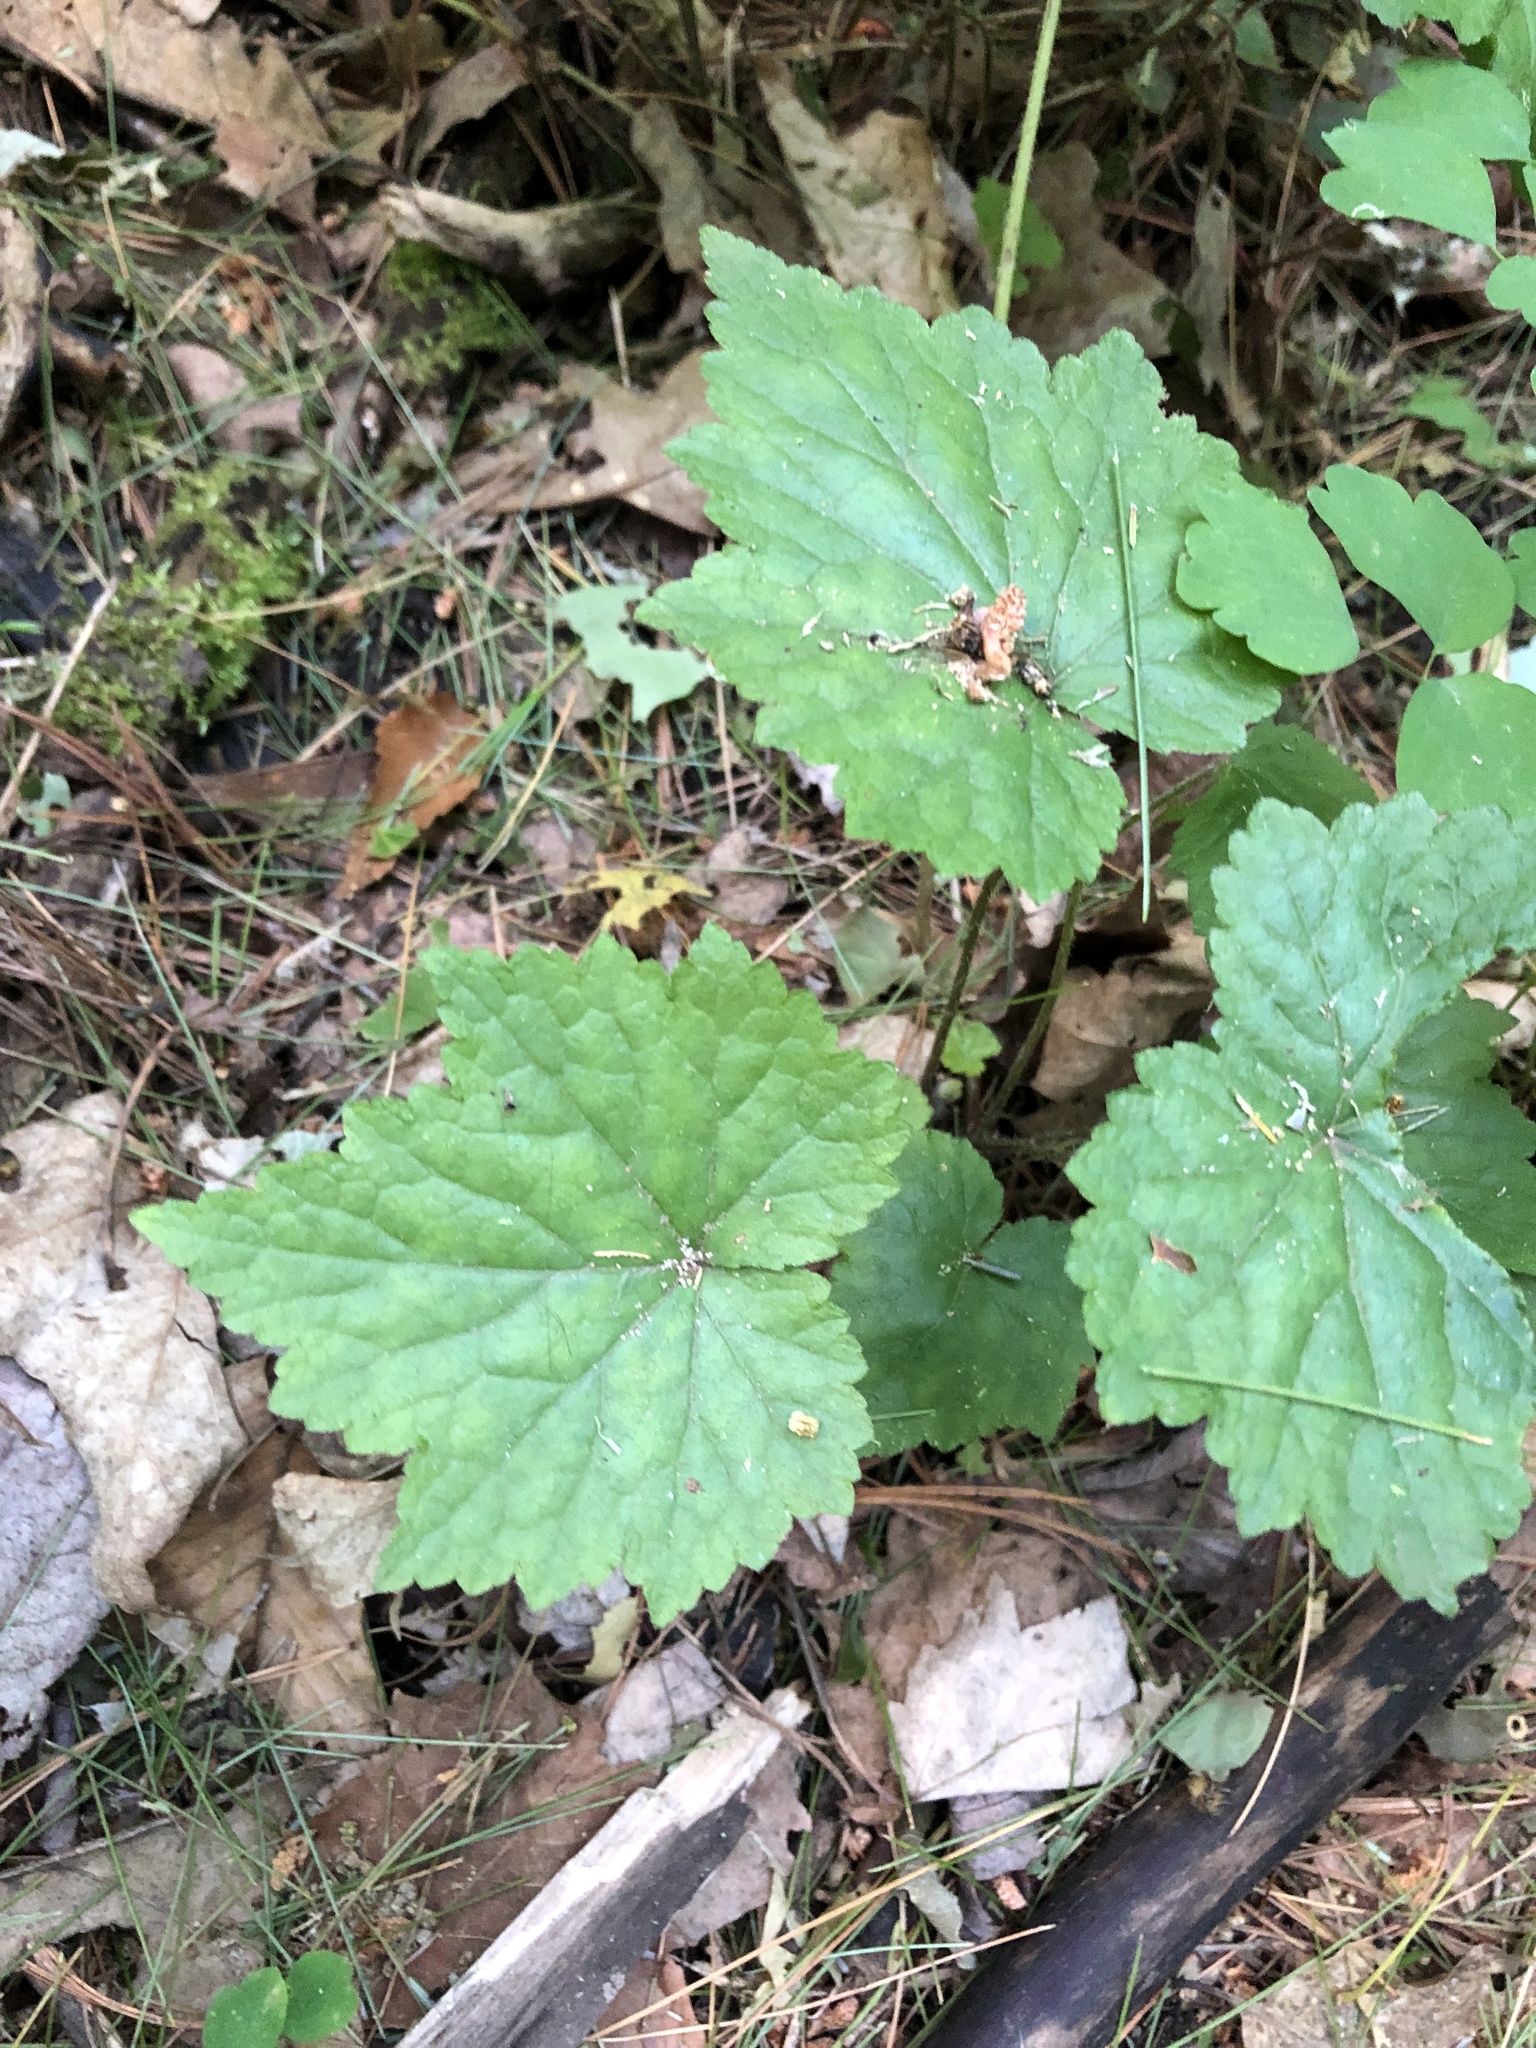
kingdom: Plantae
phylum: Tracheophyta
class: Magnoliopsida
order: Saxifragales
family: Saxifragaceae
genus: Mitella
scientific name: Mitella diphylla
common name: Coolwort
